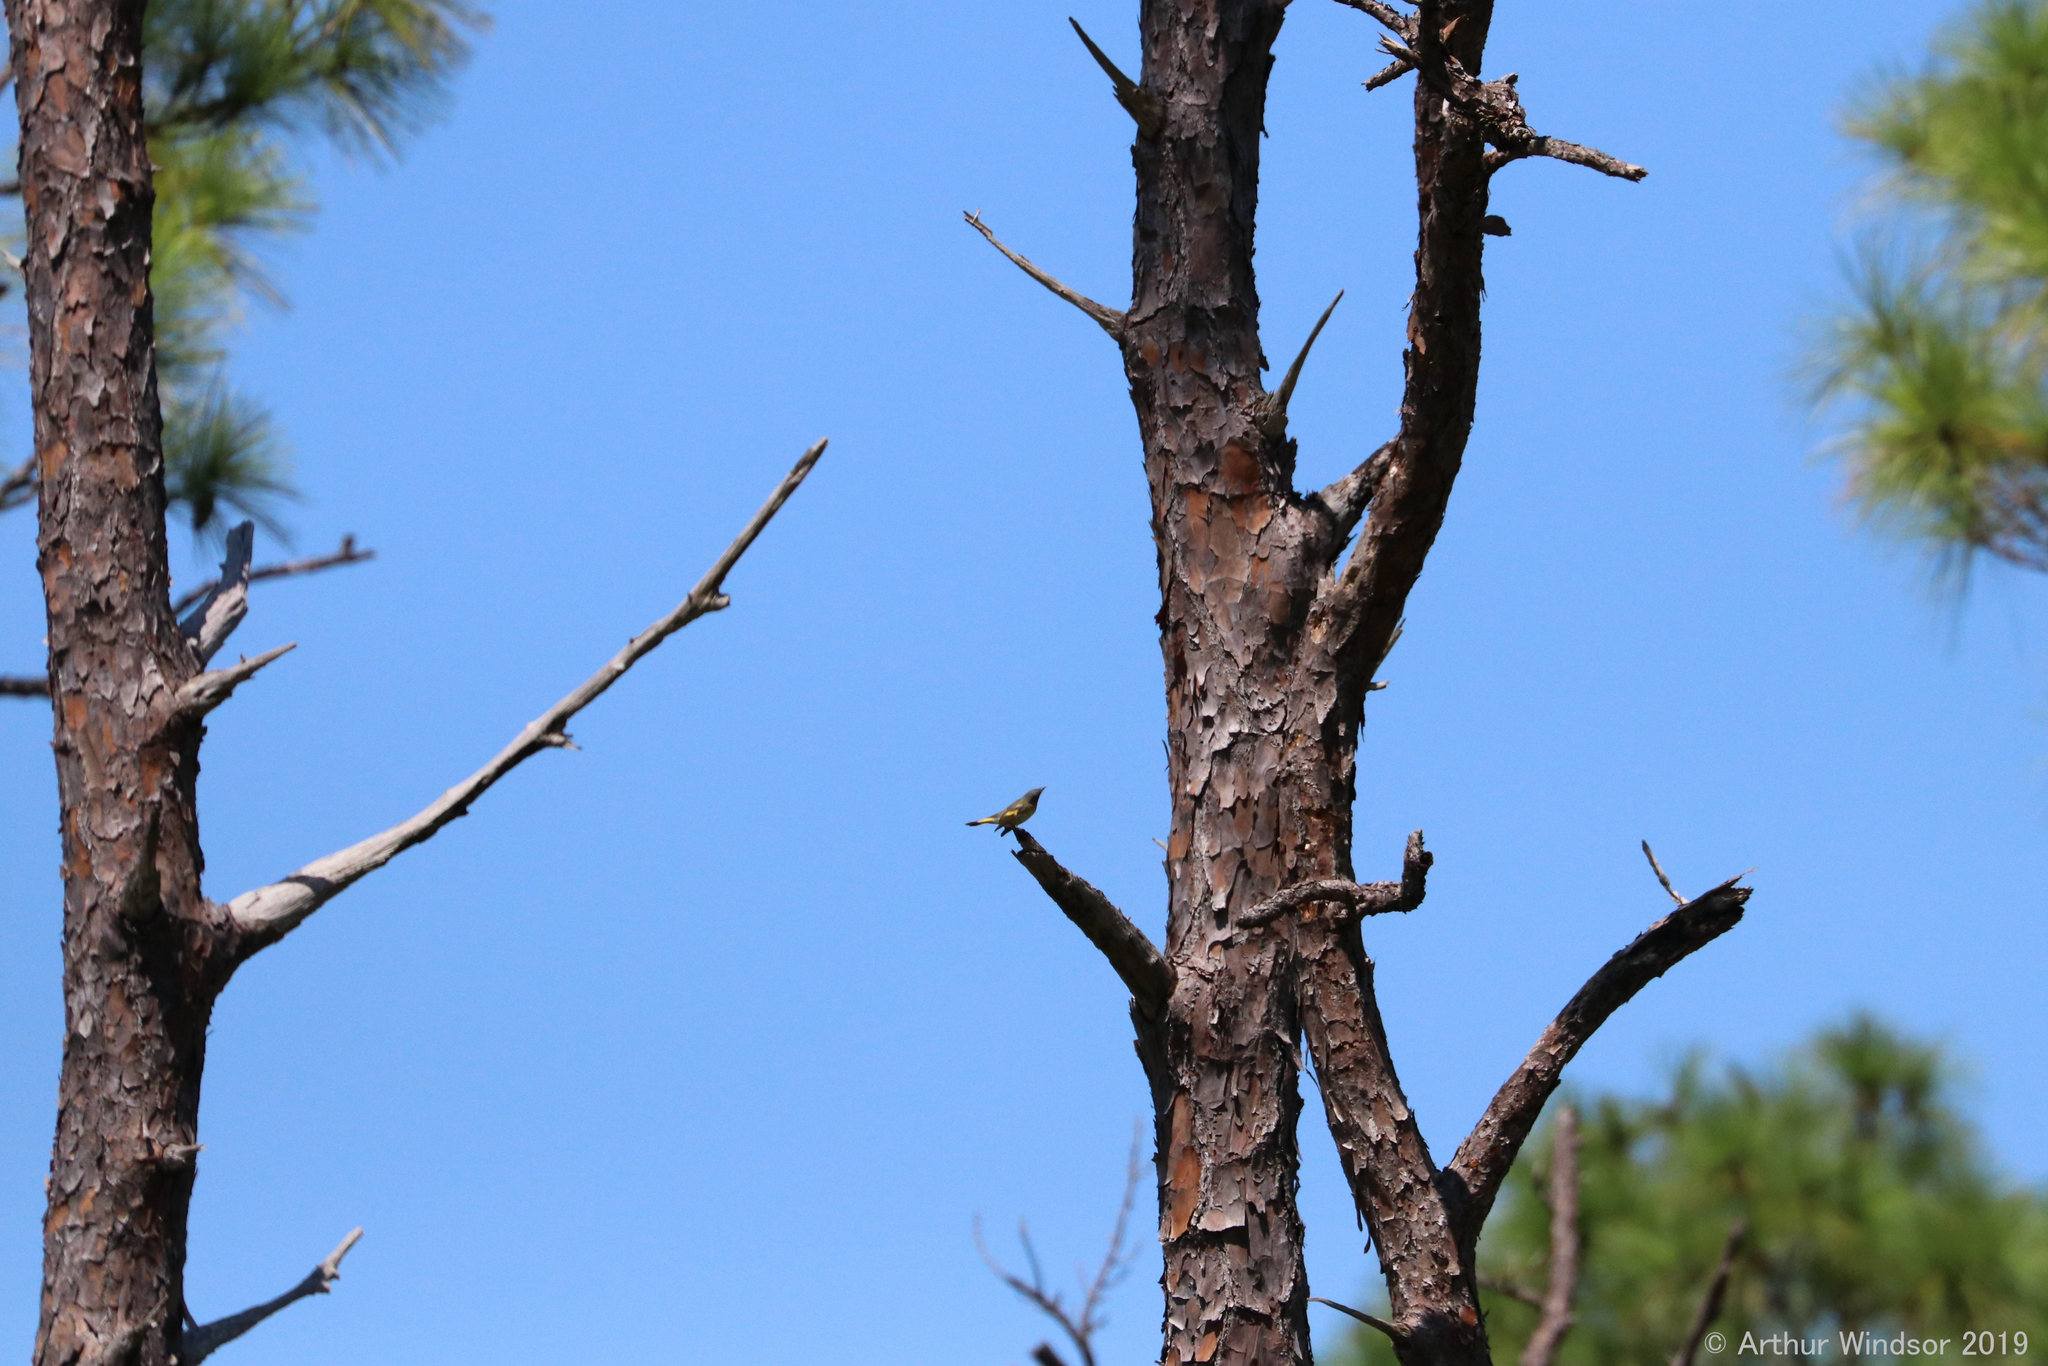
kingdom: Animalia
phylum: Chordata
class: Aves
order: Passeriformes
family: Parulidae
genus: Setophaga
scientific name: Setophaga ruticilla
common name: American redstart
